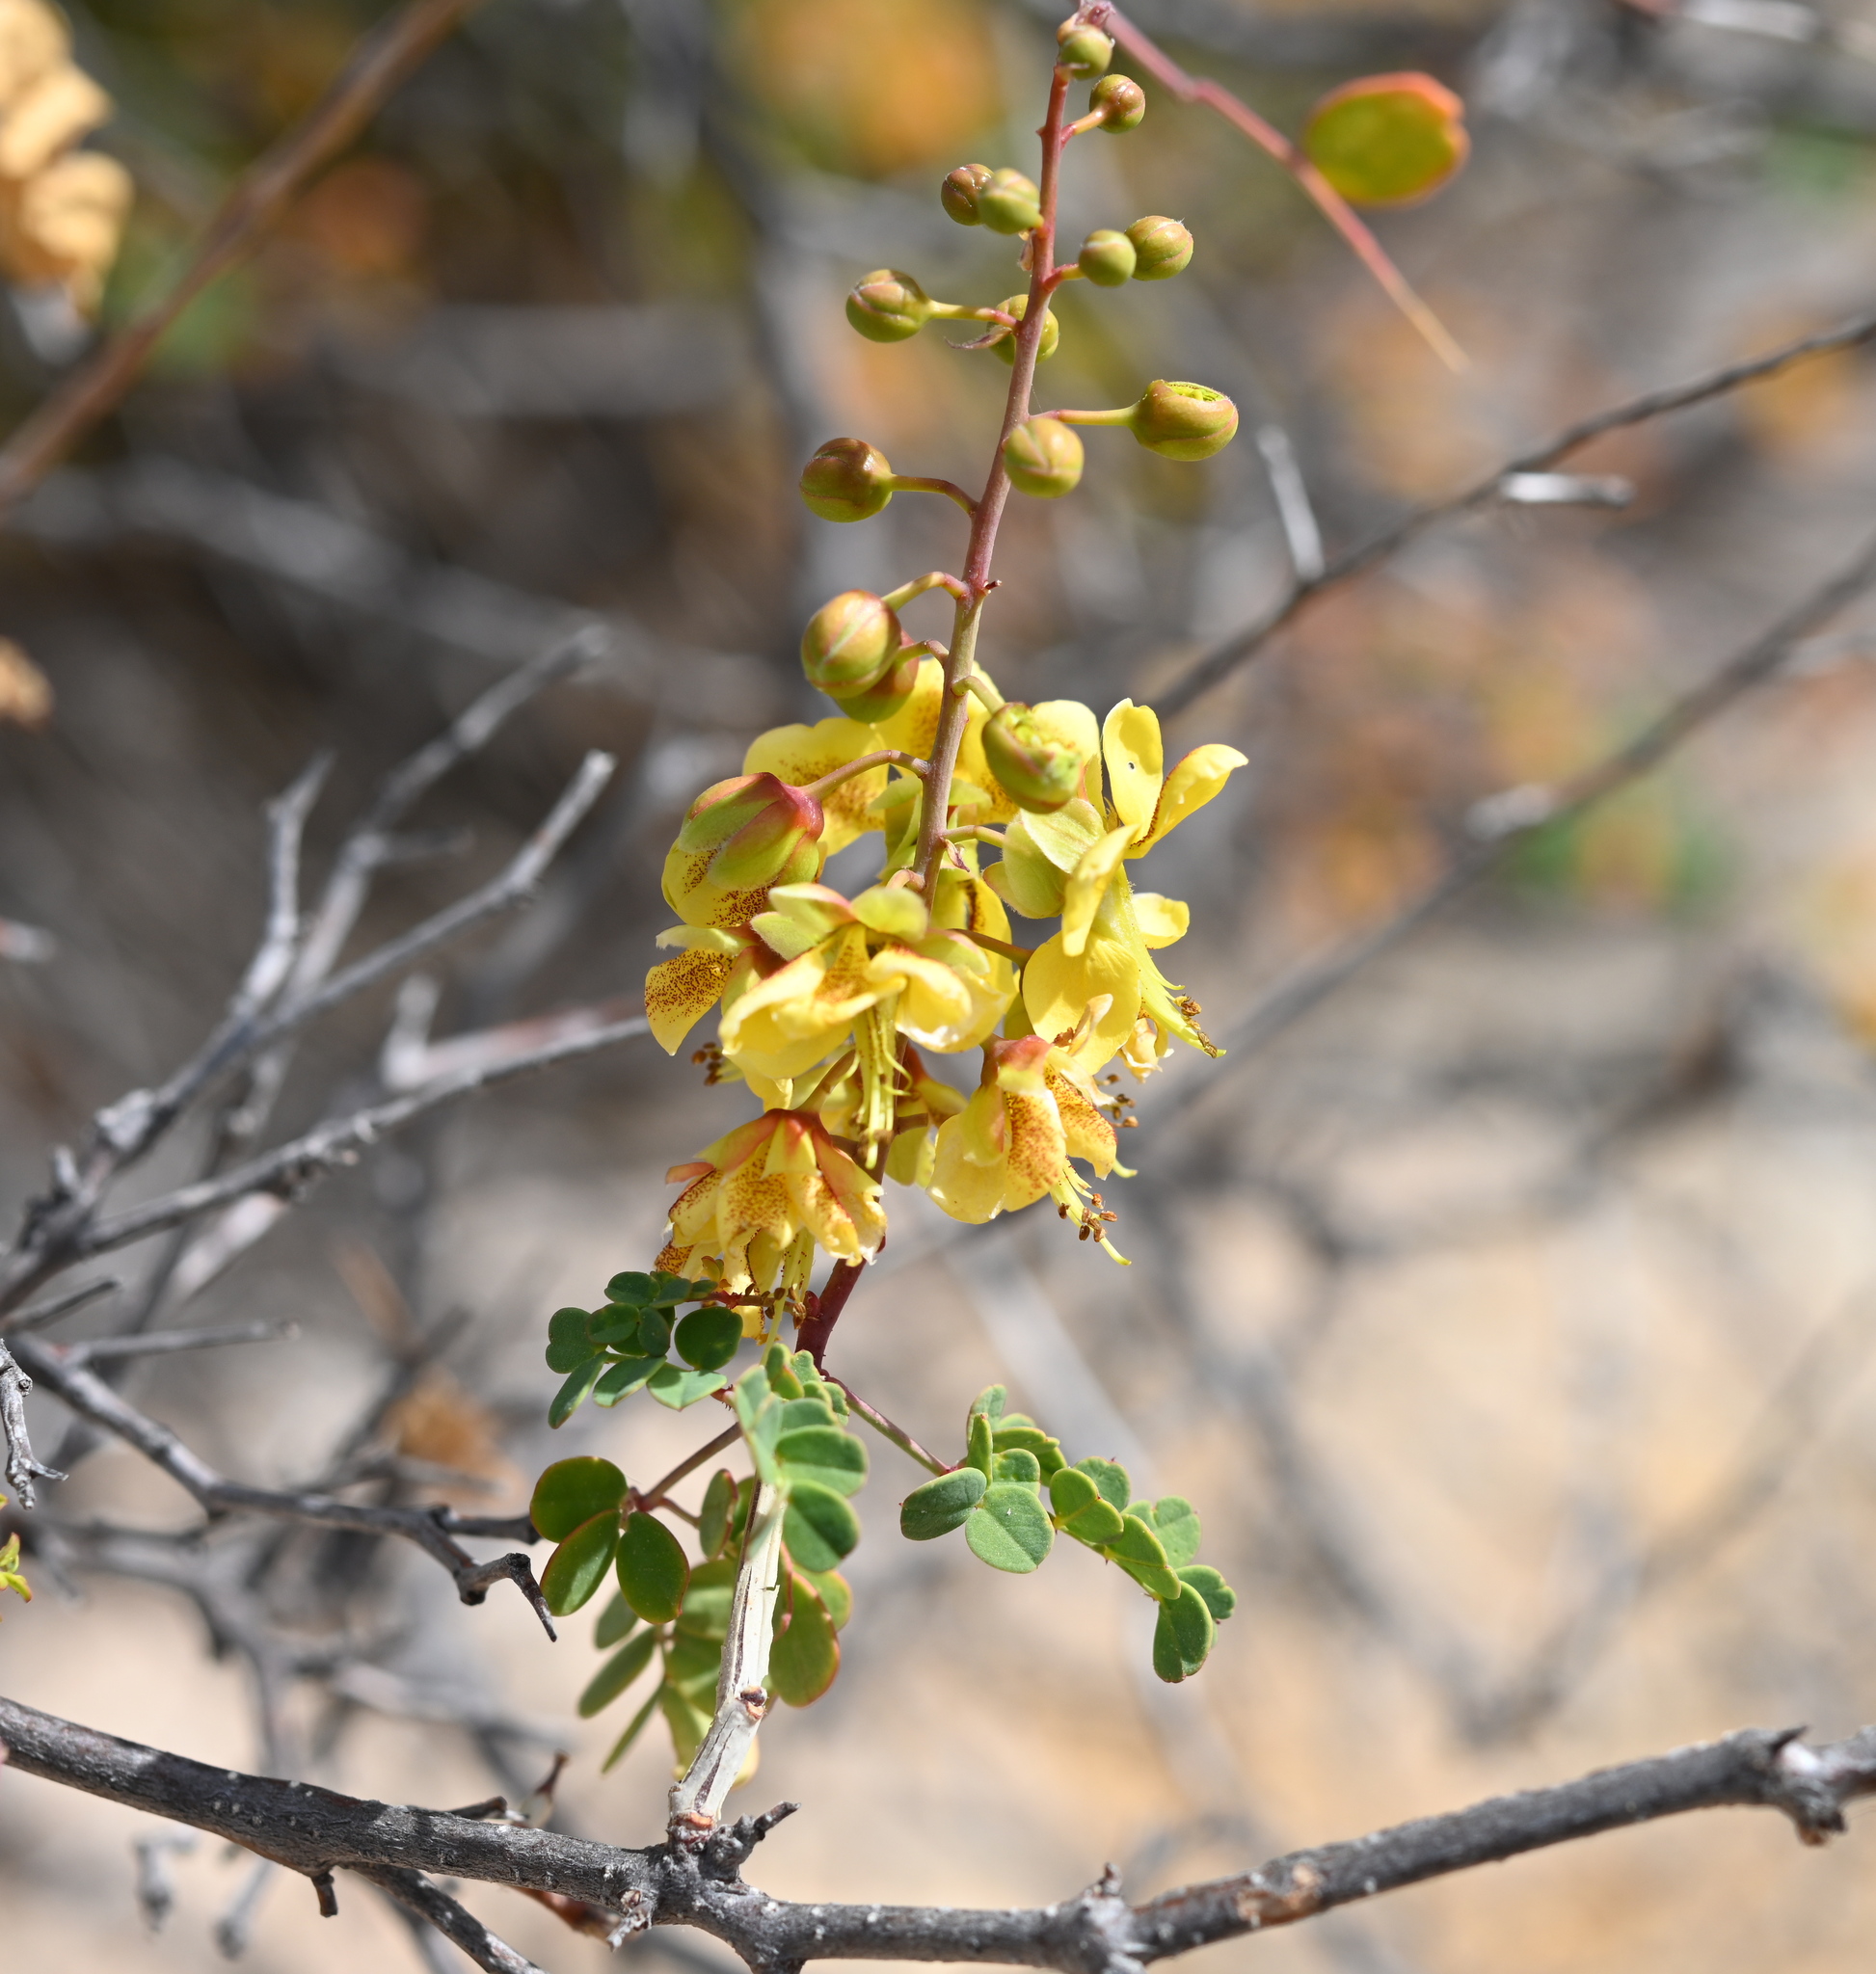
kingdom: Plantae
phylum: Tracheophyta
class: Magnoliopsida
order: Fabales
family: Fabaceae
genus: Erythrostemon
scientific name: Erythrostemon pannosus
